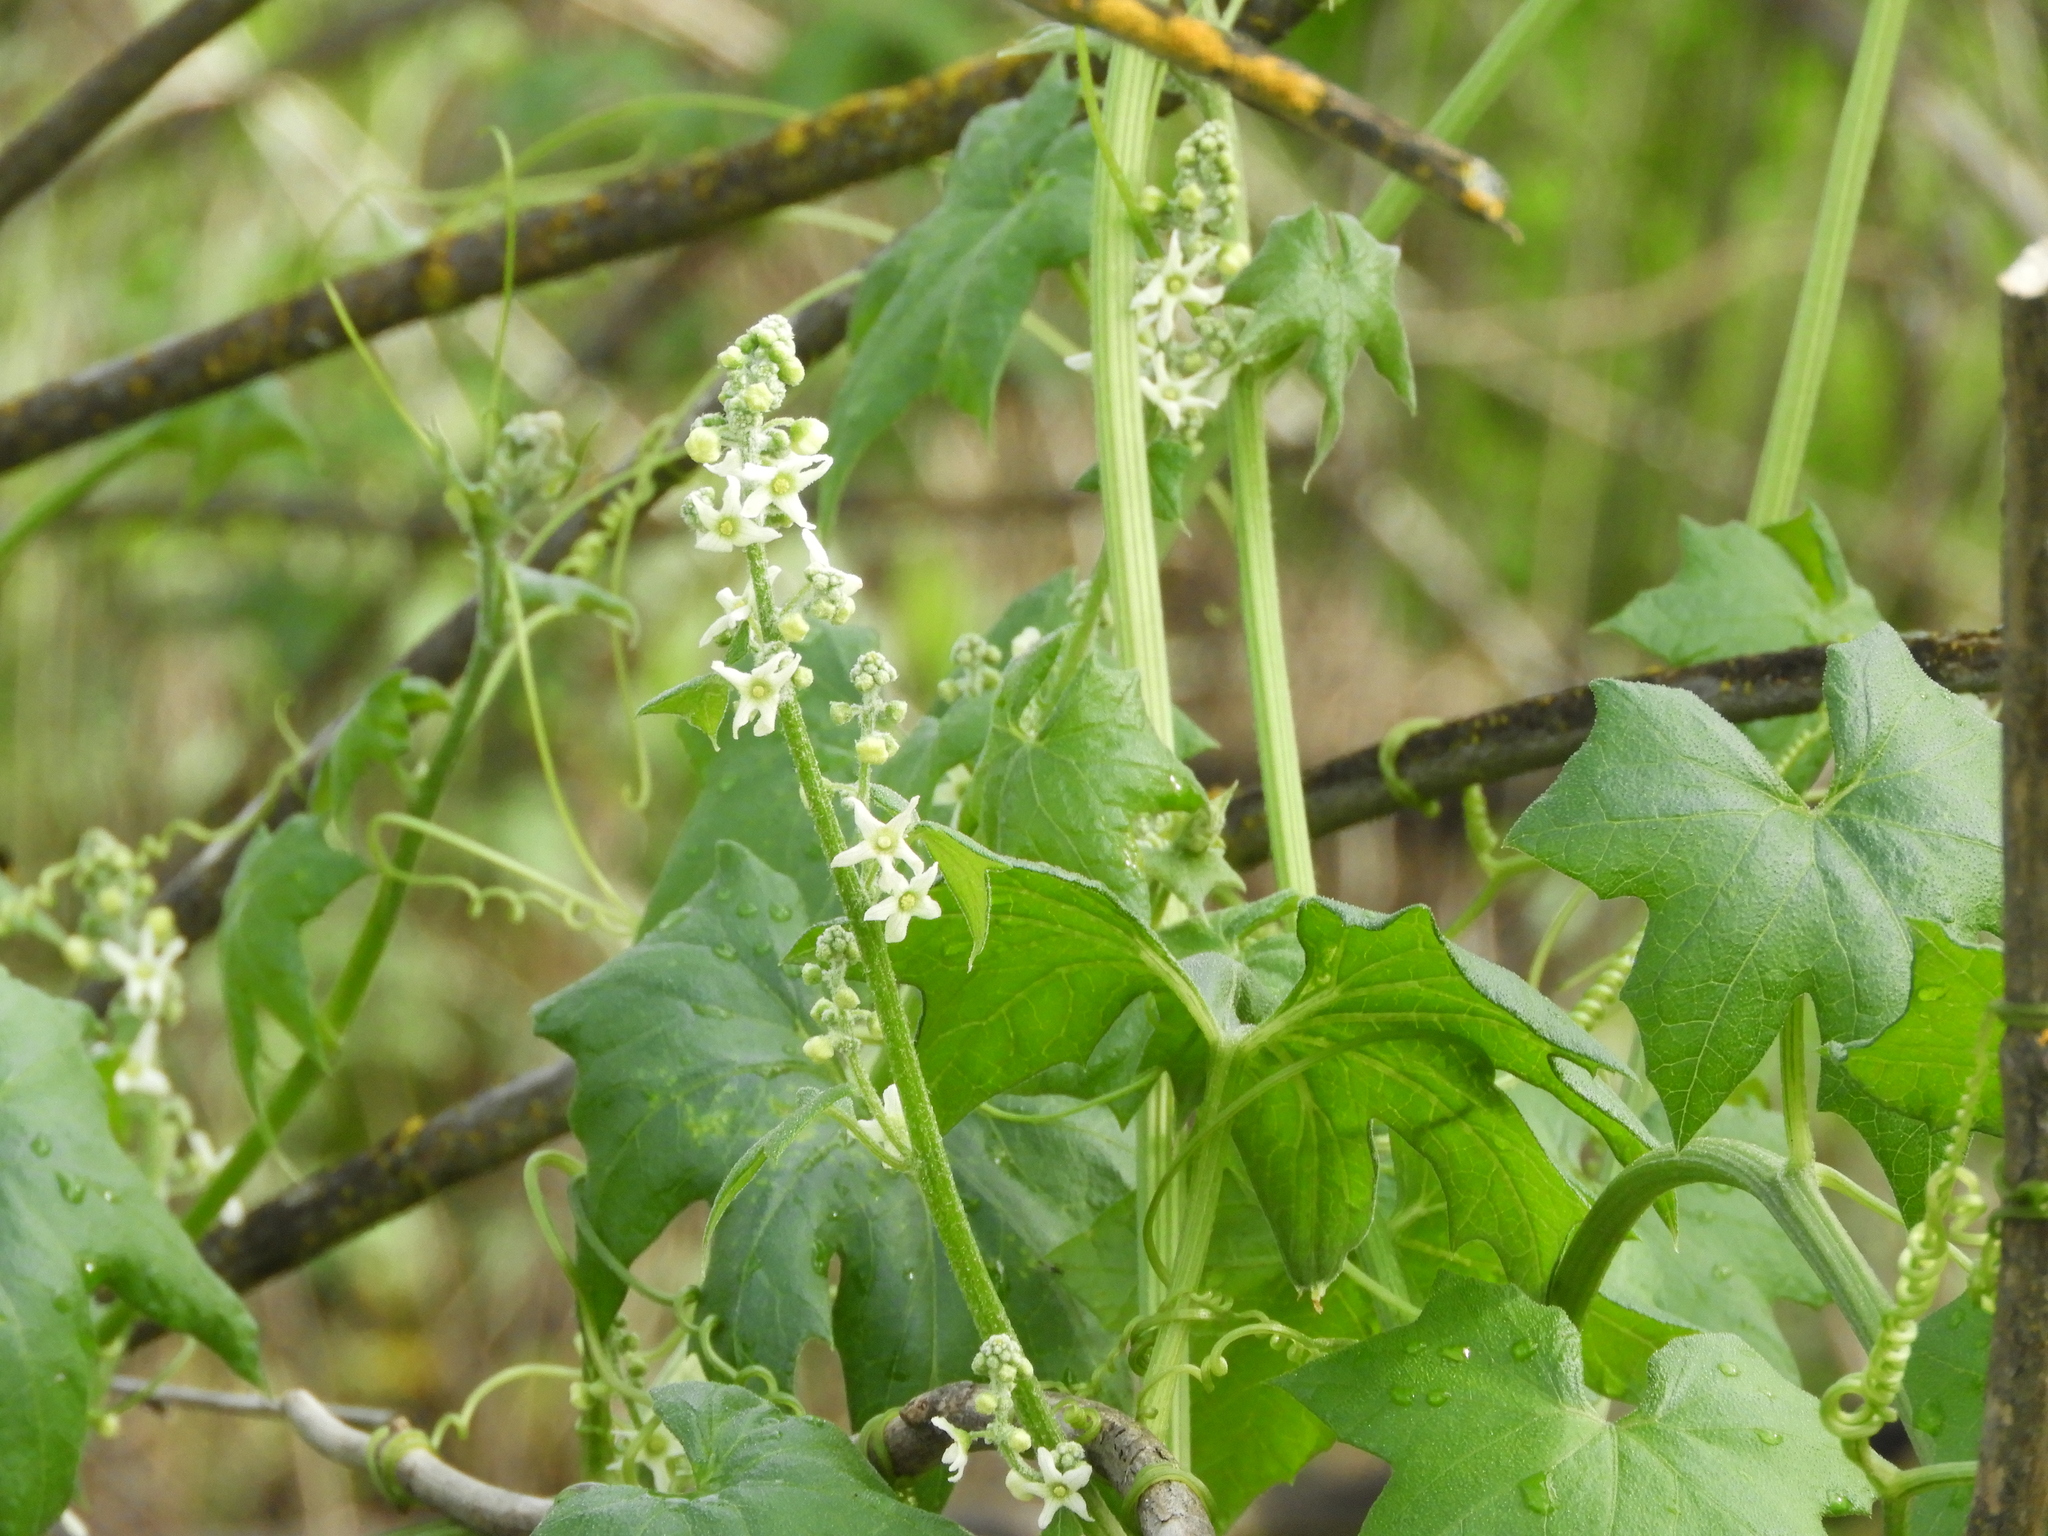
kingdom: Plantae
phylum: Tracheophyta
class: Magnoliopsida
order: Cucurbitales
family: Cucurbitaceae
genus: Marah
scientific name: Marah fabacea
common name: California manroot
